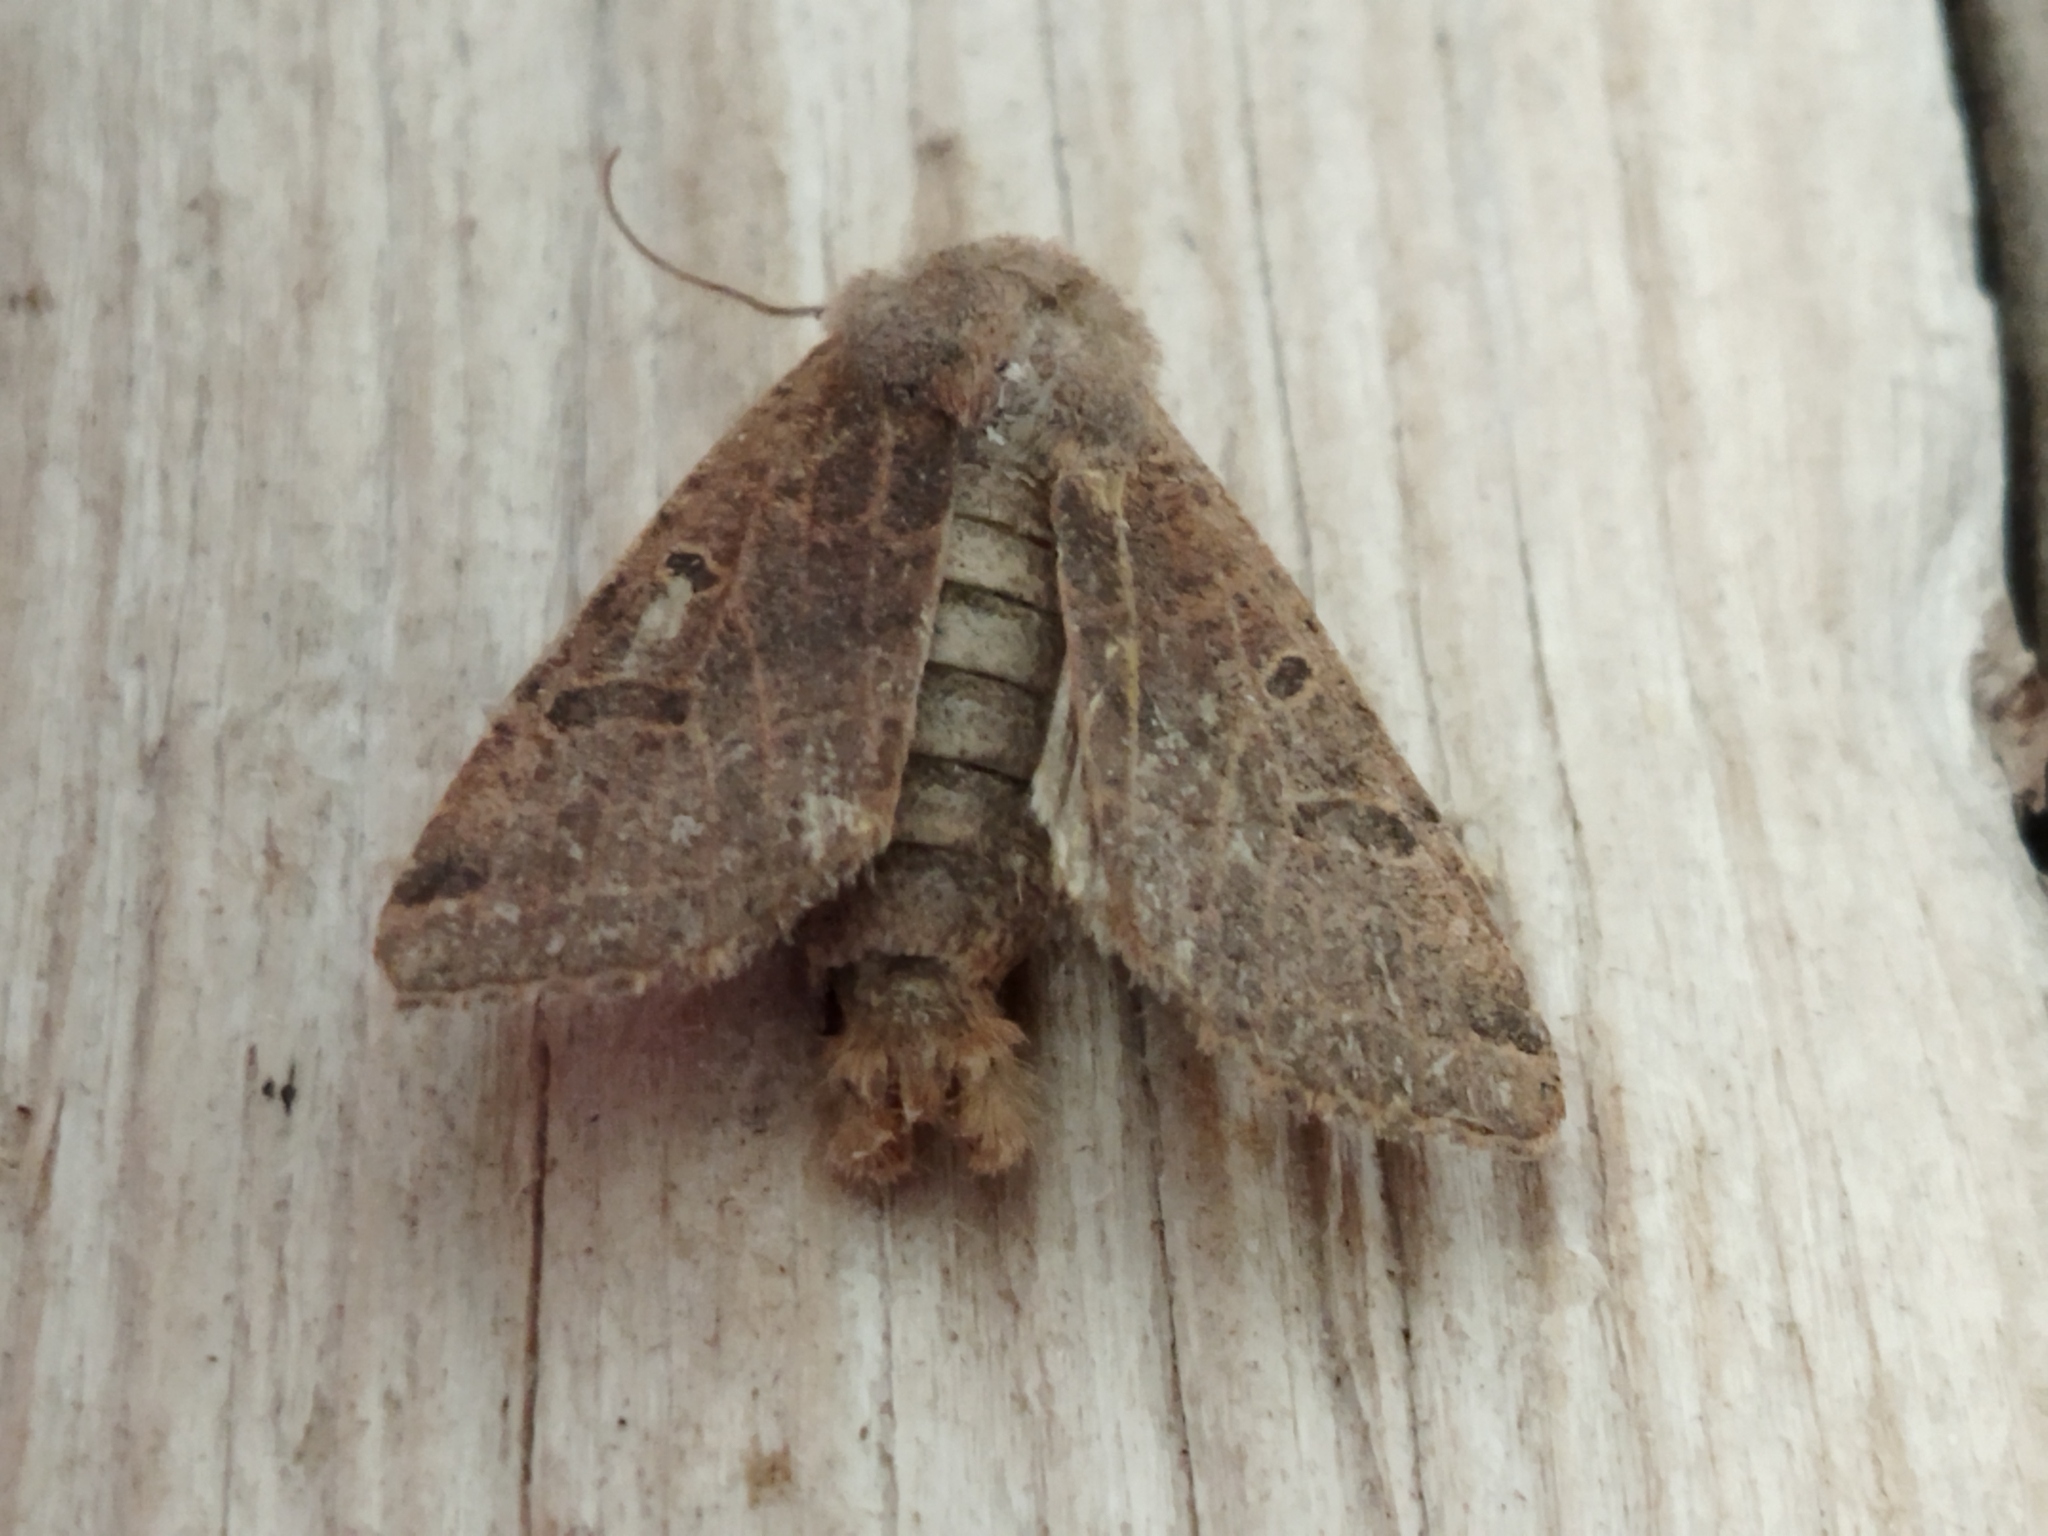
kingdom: Animalia
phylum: Arthropoda
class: Insecta
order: Lepidoptera
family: Noctuidae
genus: Agrochola
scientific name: Agrochola lychnidis
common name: Beaded chestnut
